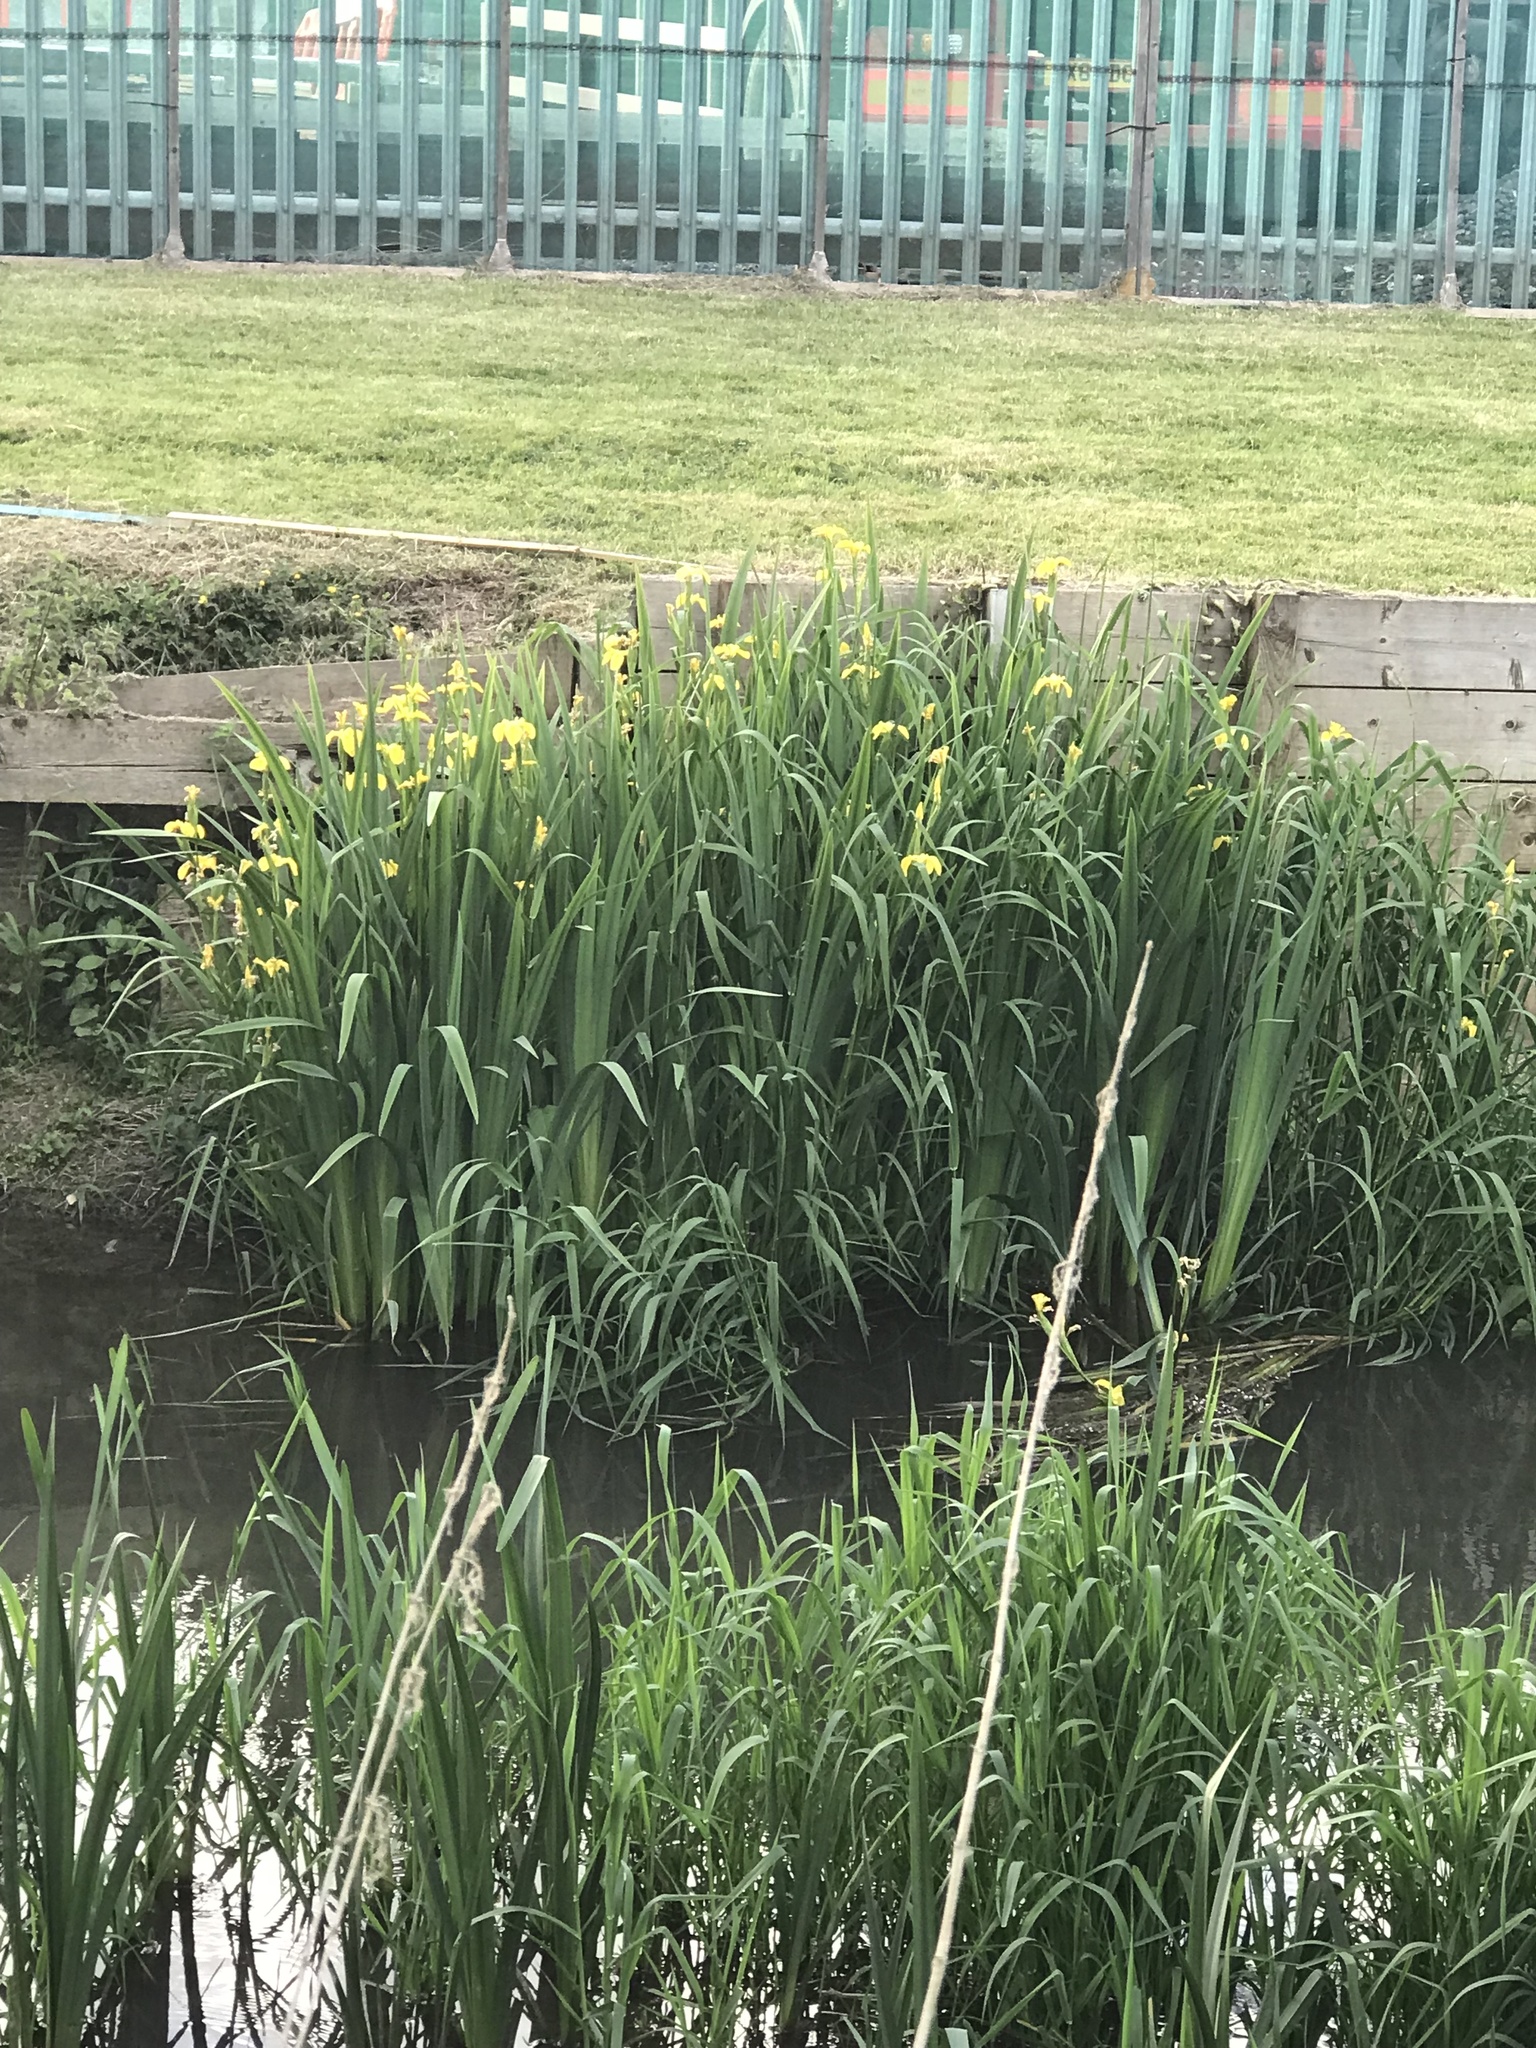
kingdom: Plantae
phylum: Tracheophyta
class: Liliopsida
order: Asparagales
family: Iridaceae
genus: Iris
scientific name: Iris pseudacorus
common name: Yellow flag
